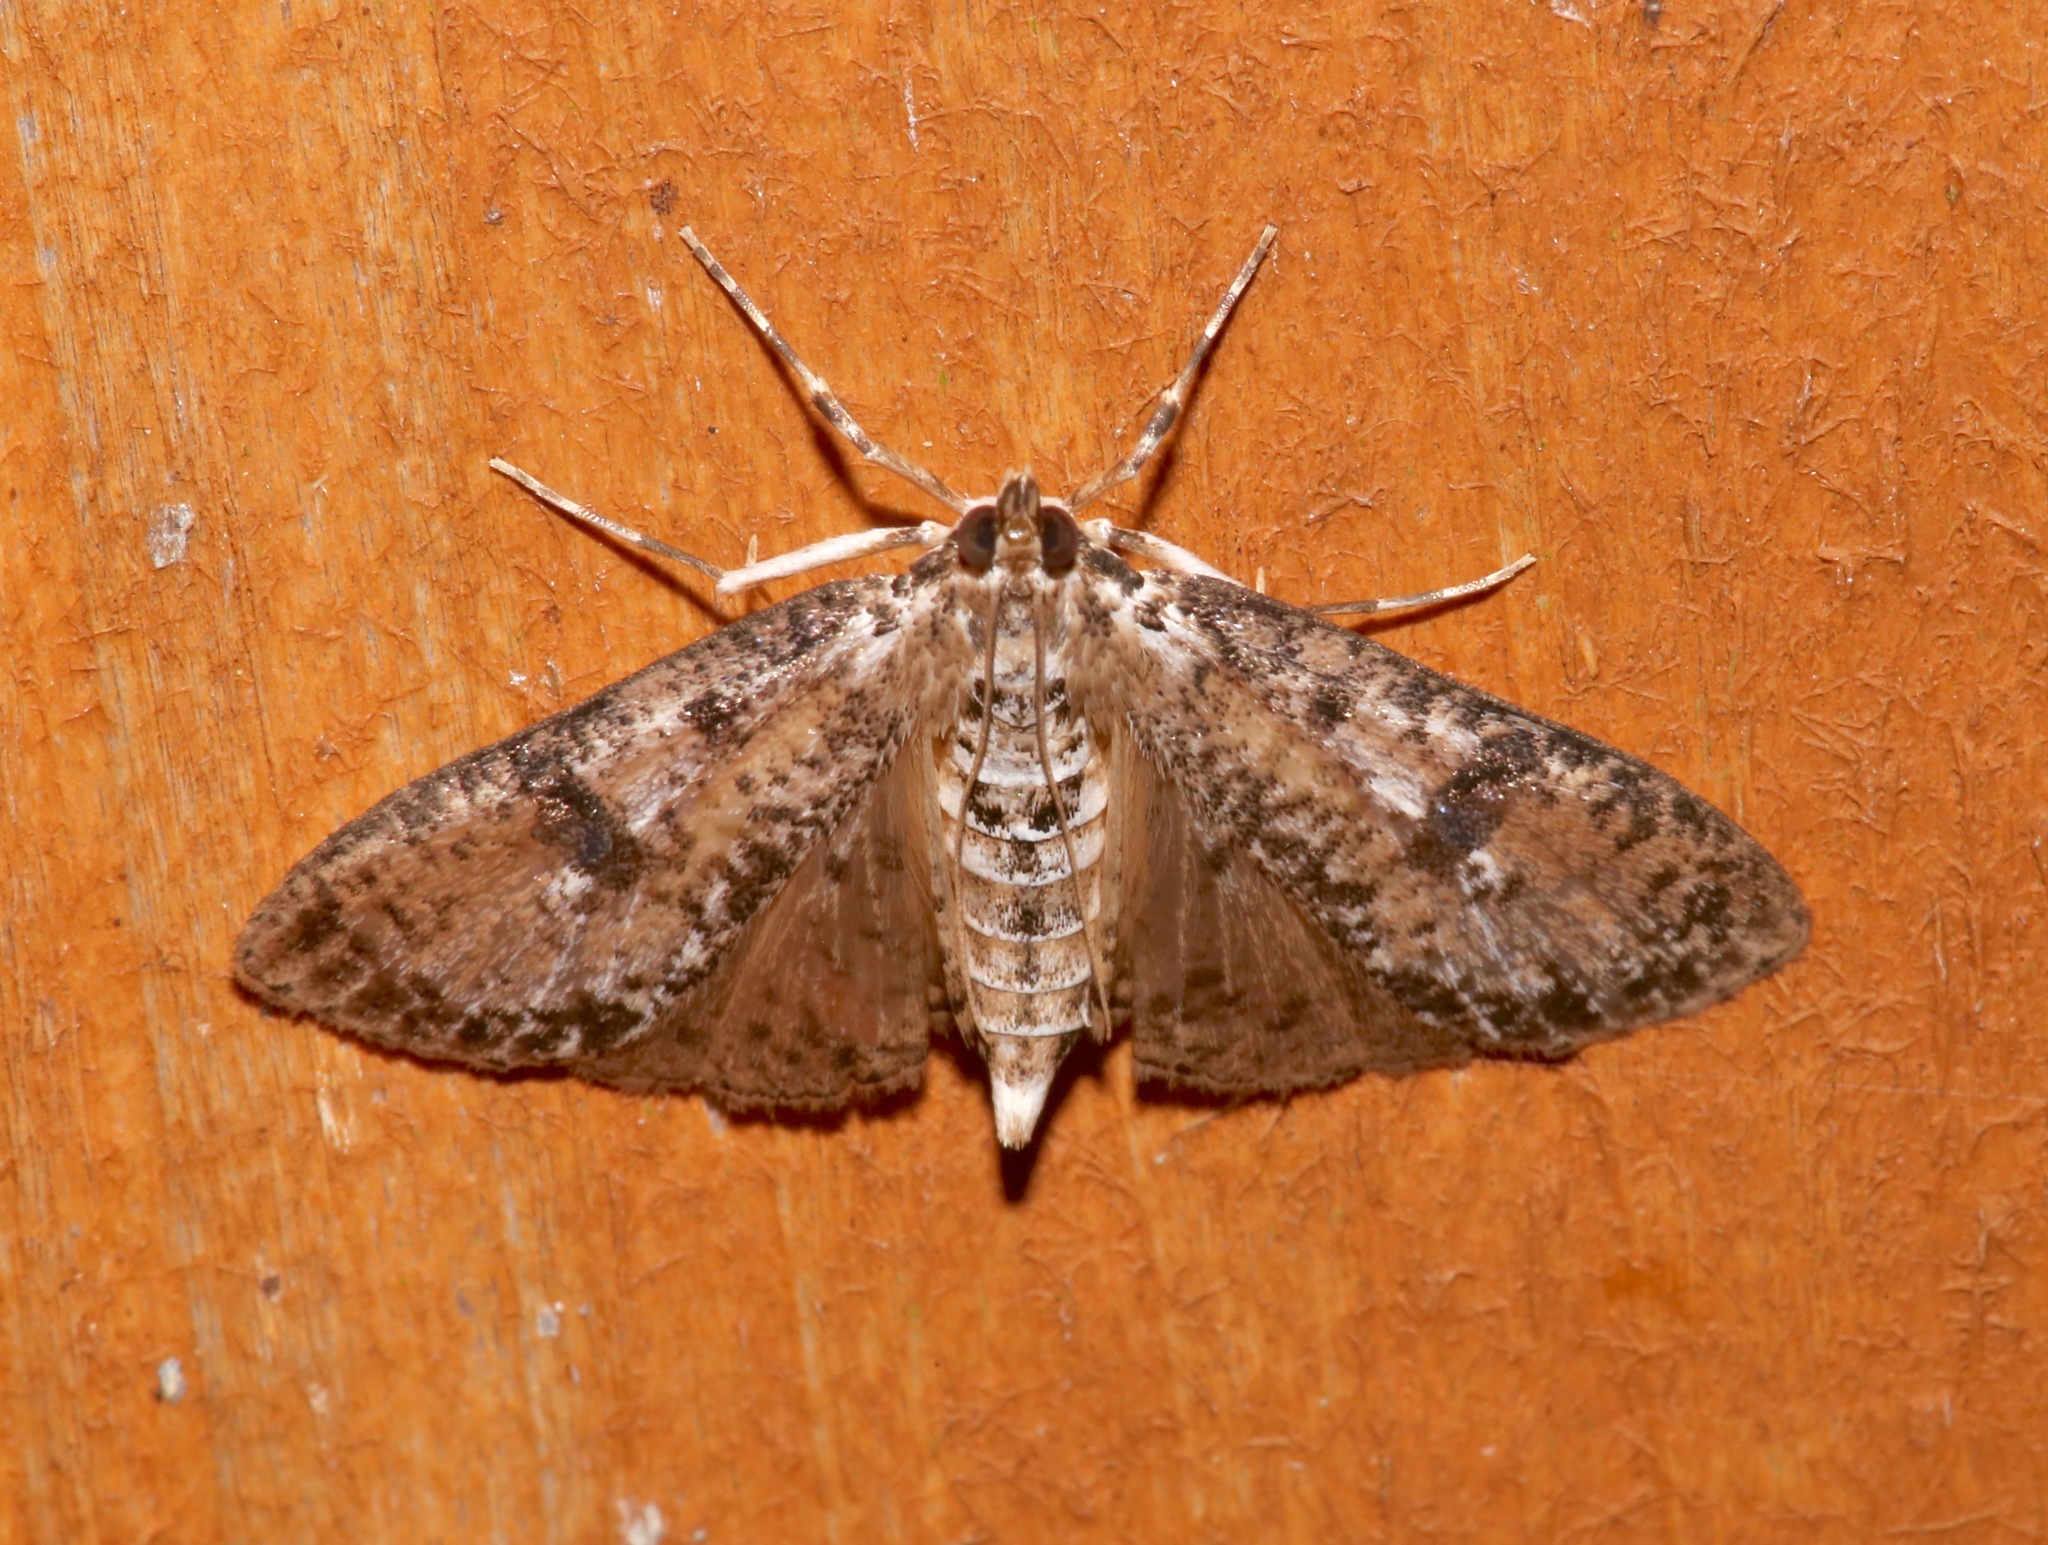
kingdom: Animalia
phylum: Arthropoda
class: Insecta
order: Lepidoptera
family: Crambidae
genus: Palpita
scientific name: Palpita magniferalis
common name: Splendid palpita moth
